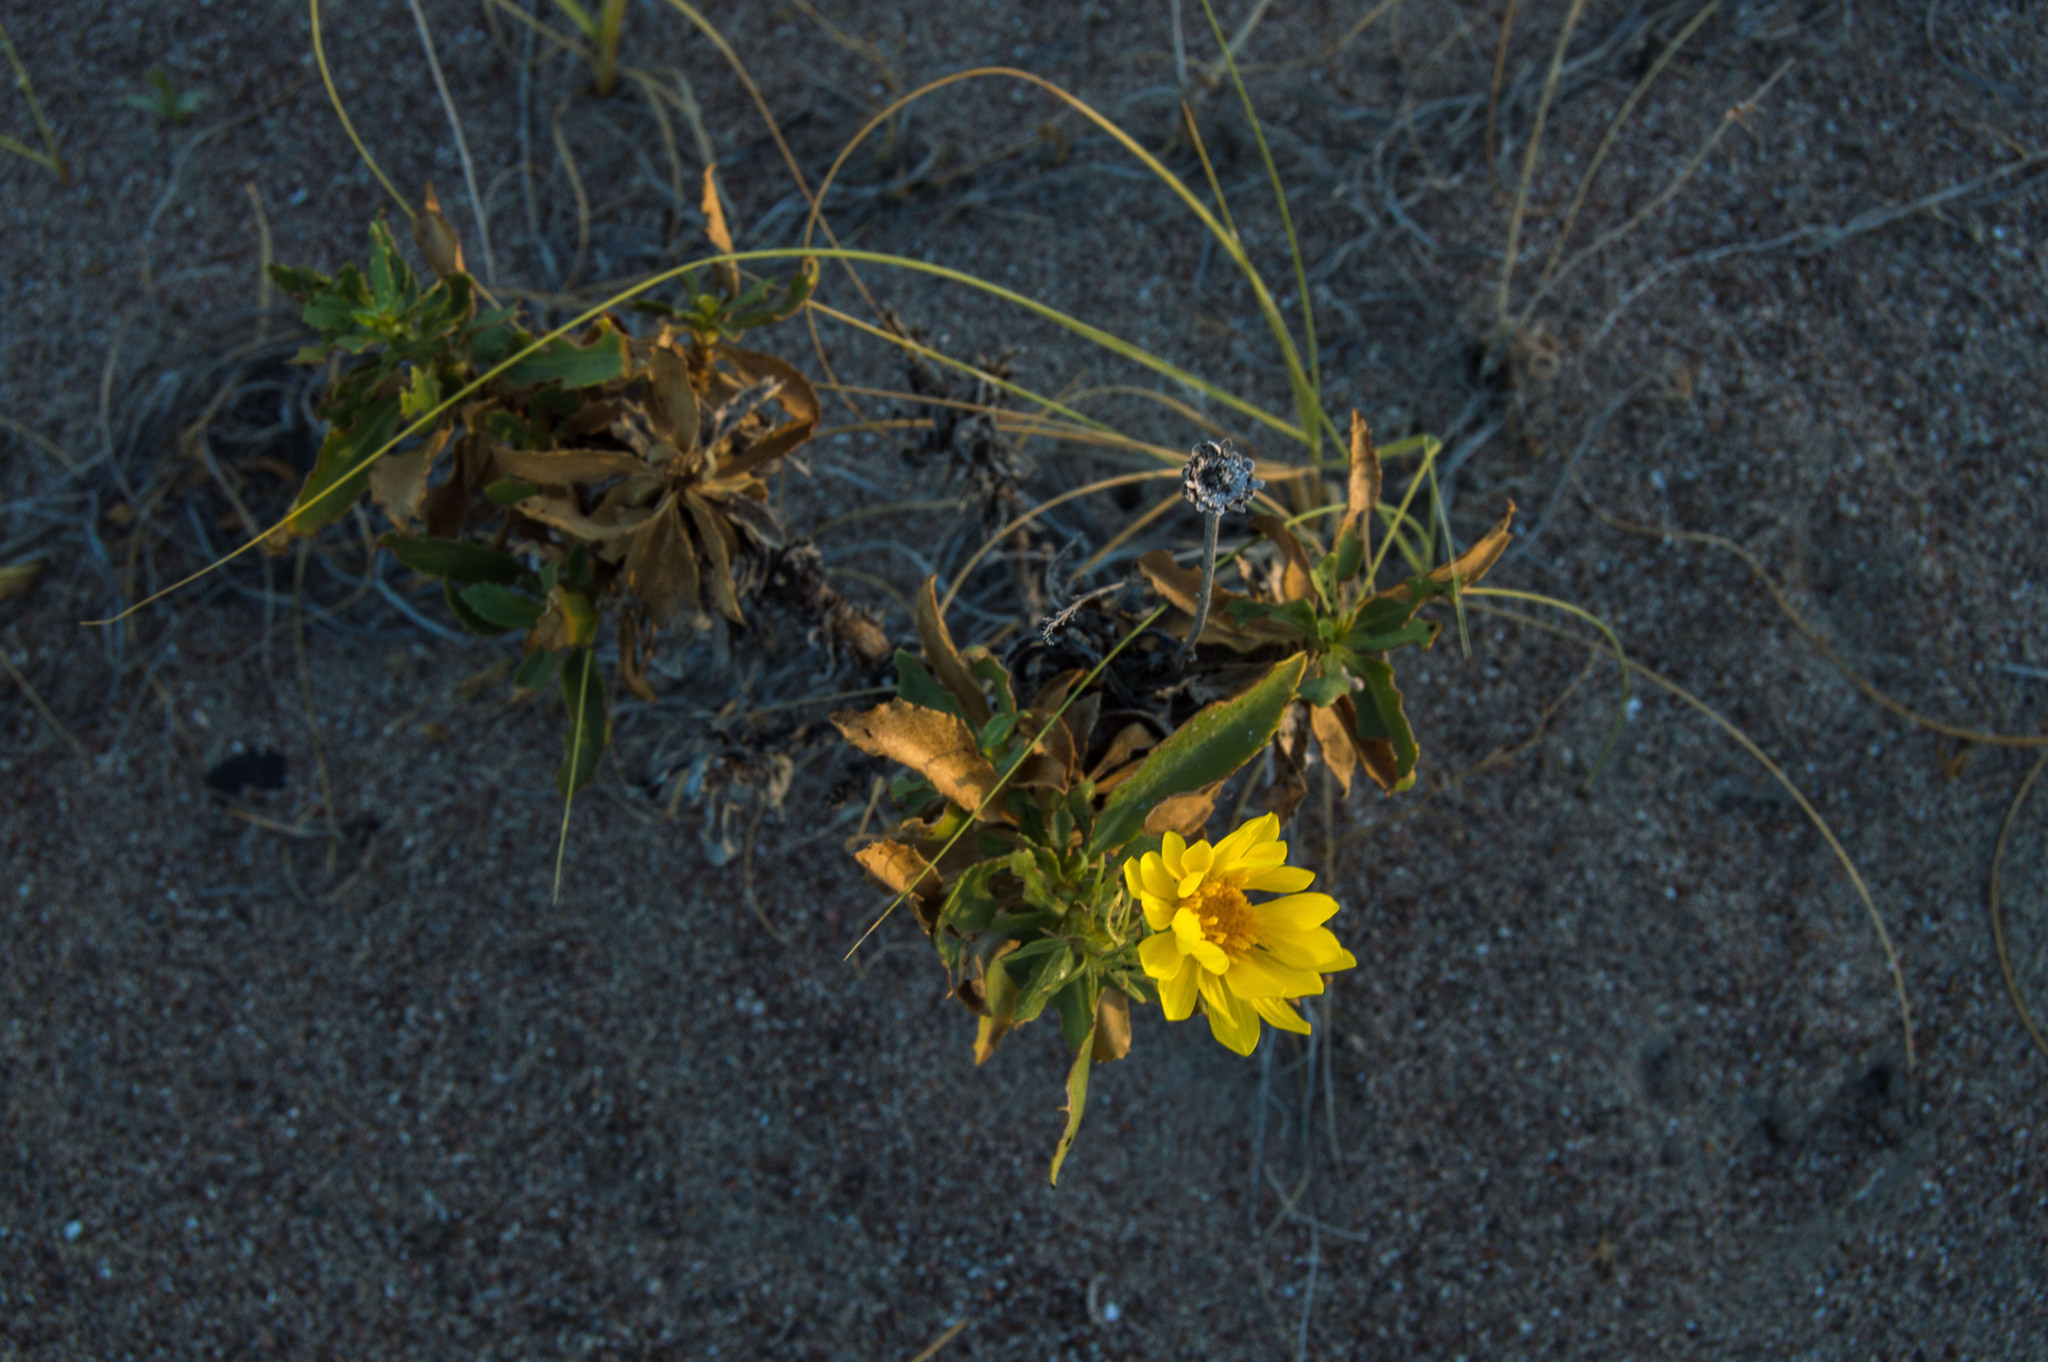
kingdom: Plantae
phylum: Tracheophyta
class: Magnoliopsida
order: Asterales
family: Asteraceae
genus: Grindelia
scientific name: Grindelia chiloensis
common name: Shrubby gumweed
